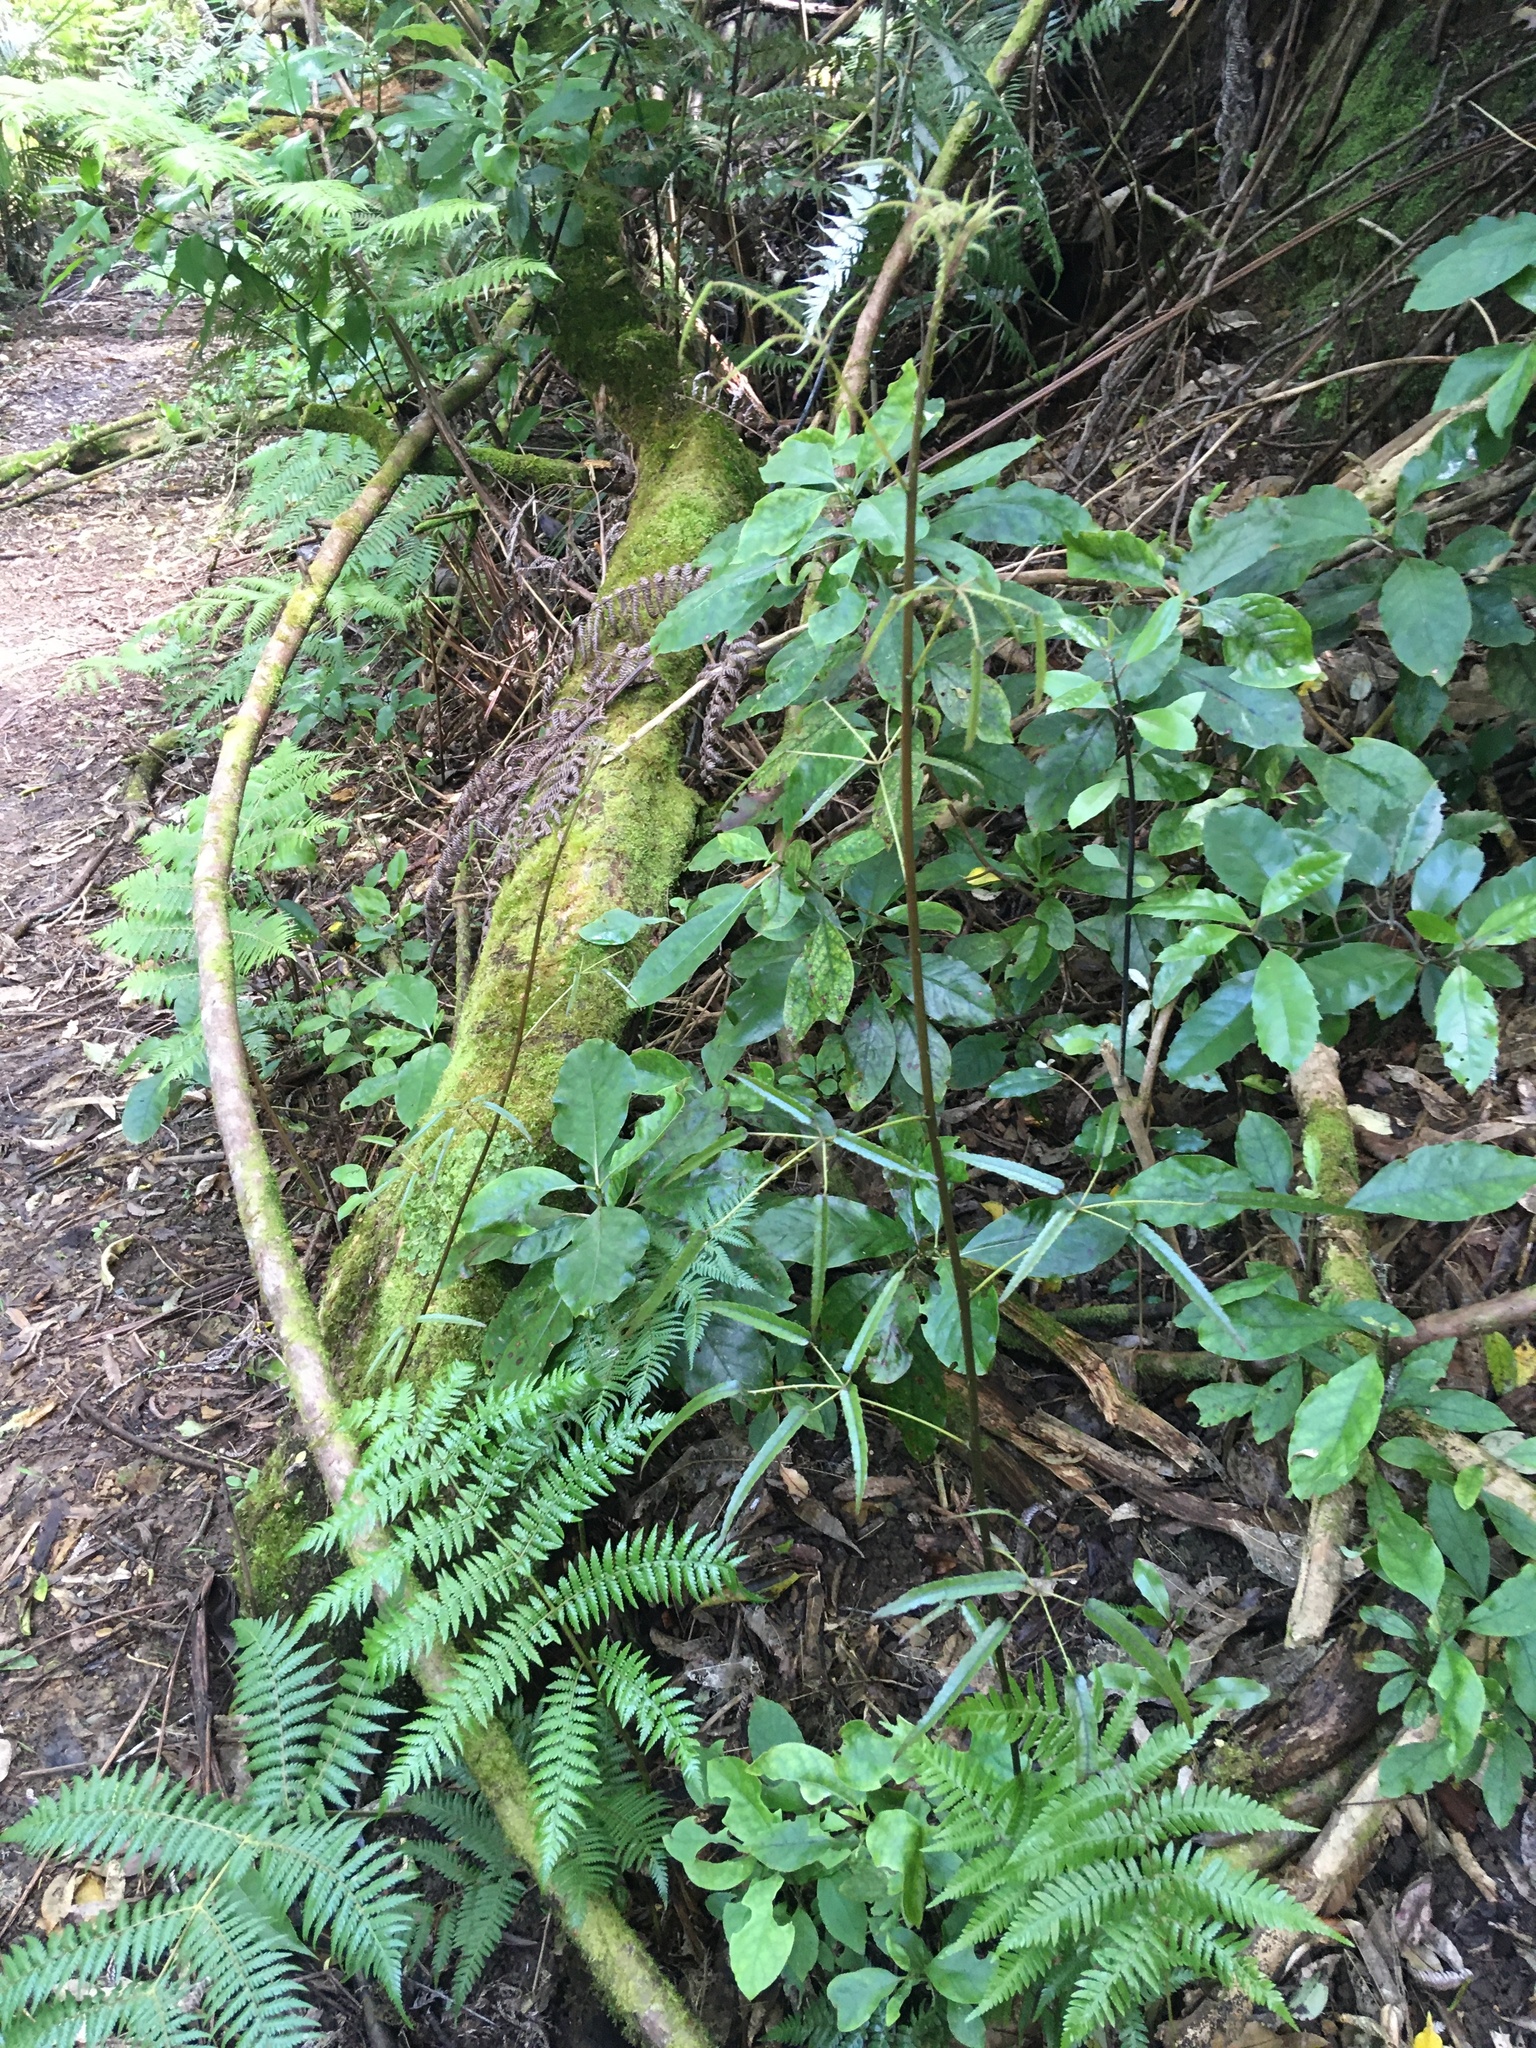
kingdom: Plantae
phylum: Tracheophyta
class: Magnoliopsida
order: Gentianales
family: Rubiaceae
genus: Coprosma
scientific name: Coprosma autumnalis
